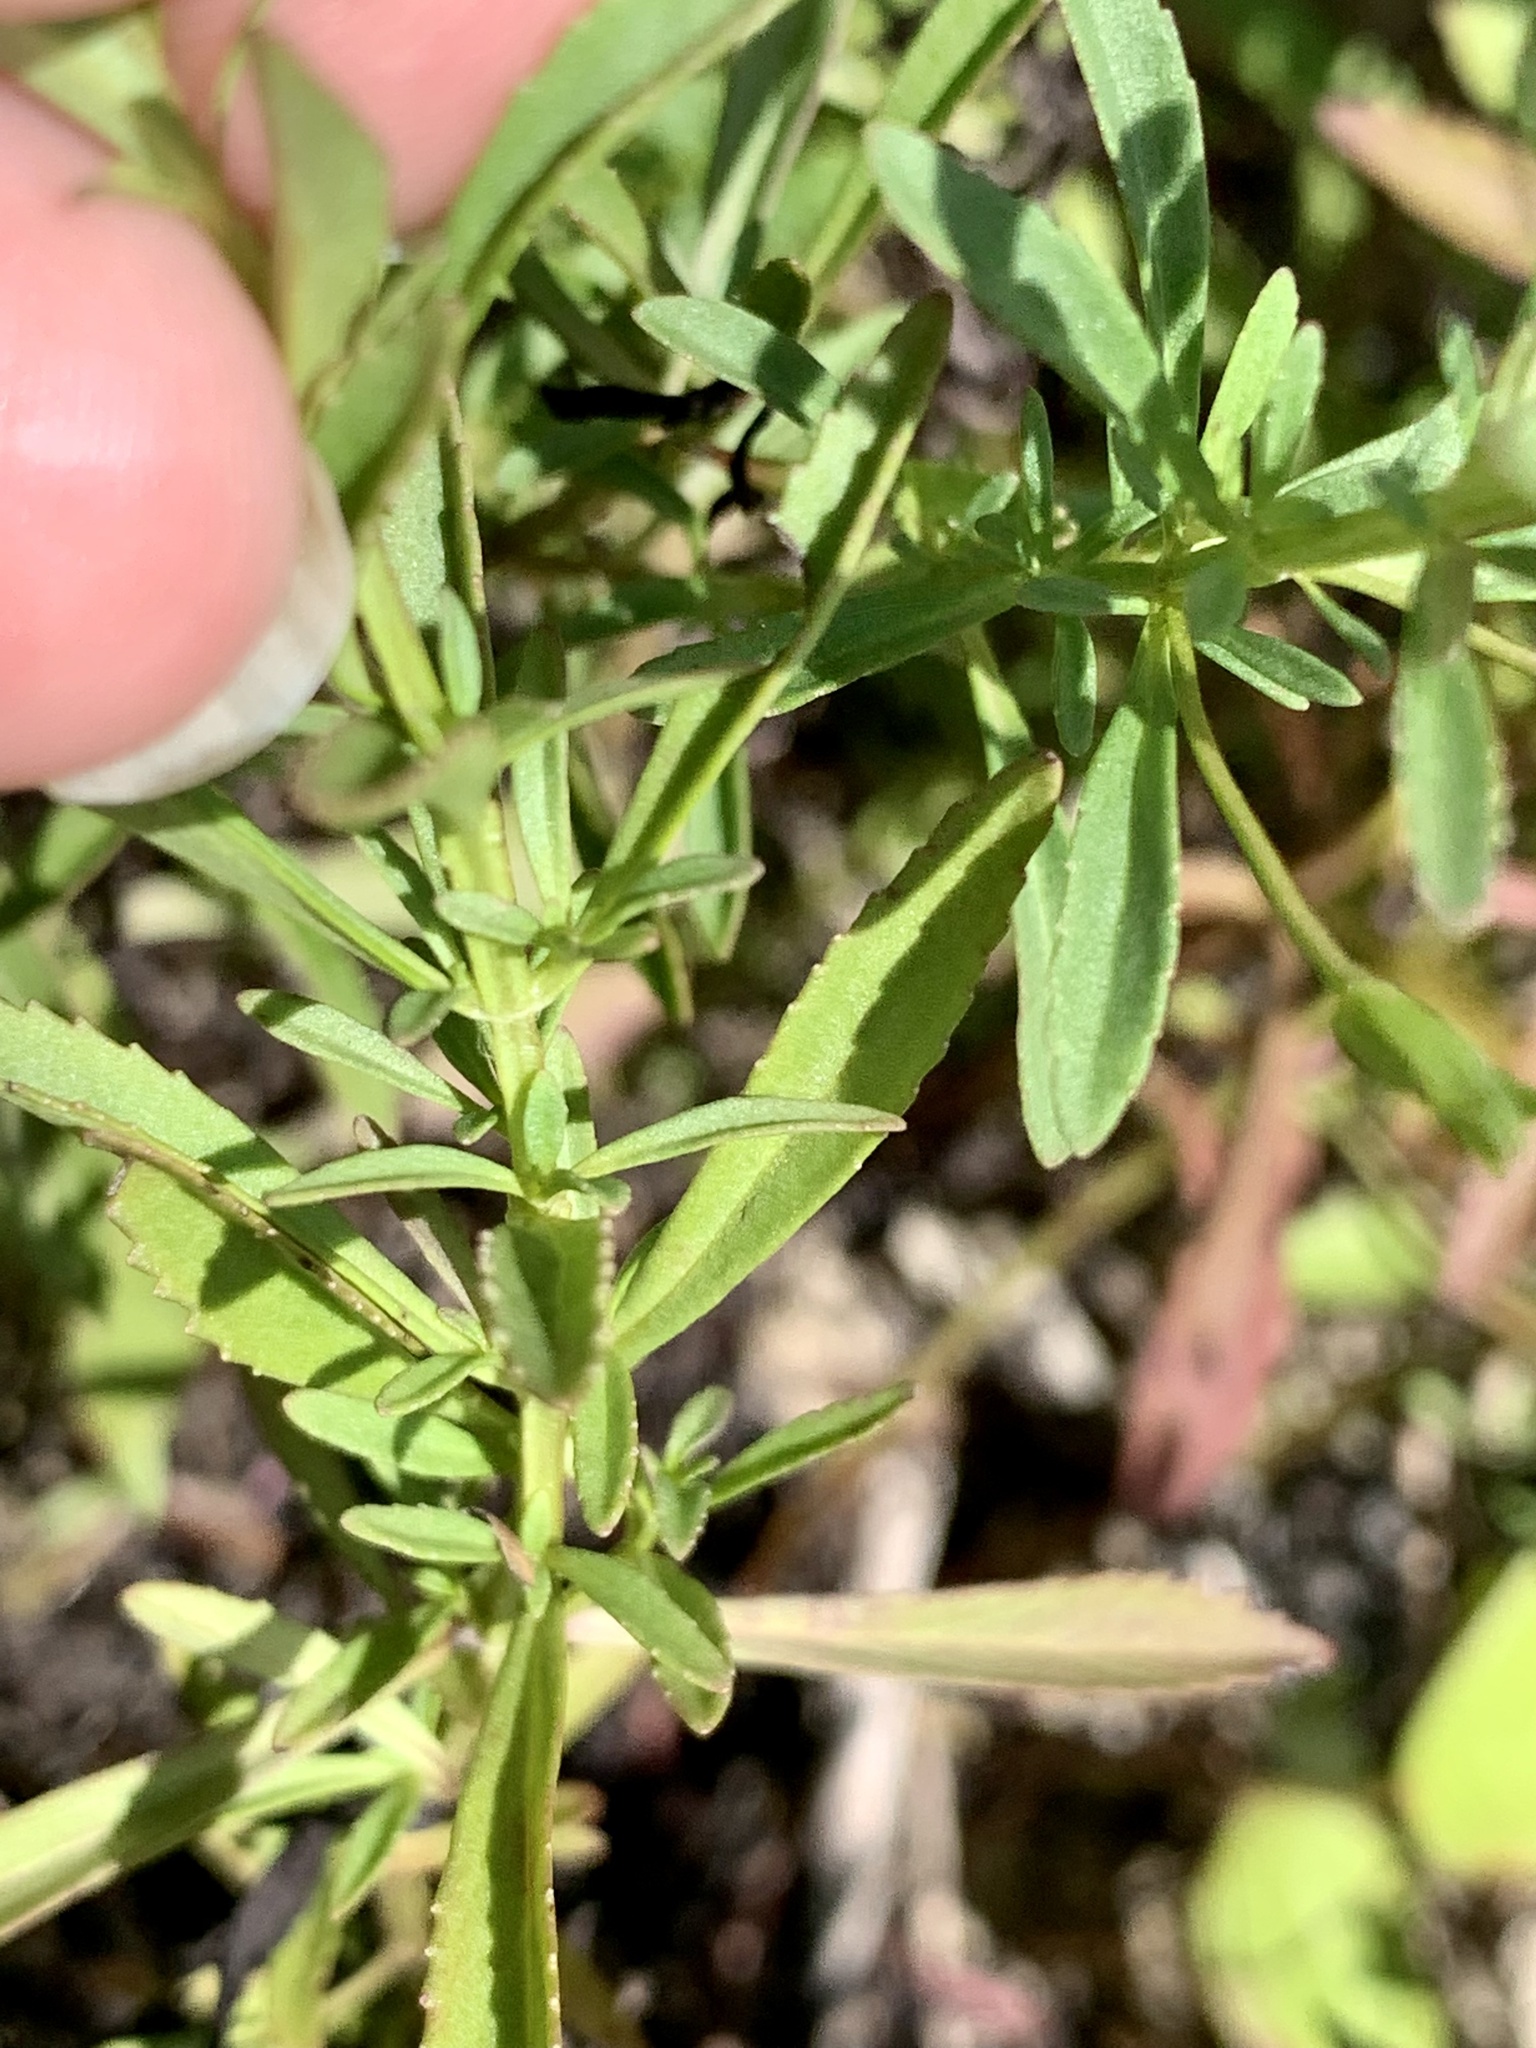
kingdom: Plantae
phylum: Tracheophyta
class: Magnoliopsida
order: Lamiales
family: Plantaginaceae
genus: Mecardonia
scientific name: Mecardonia acuminata
